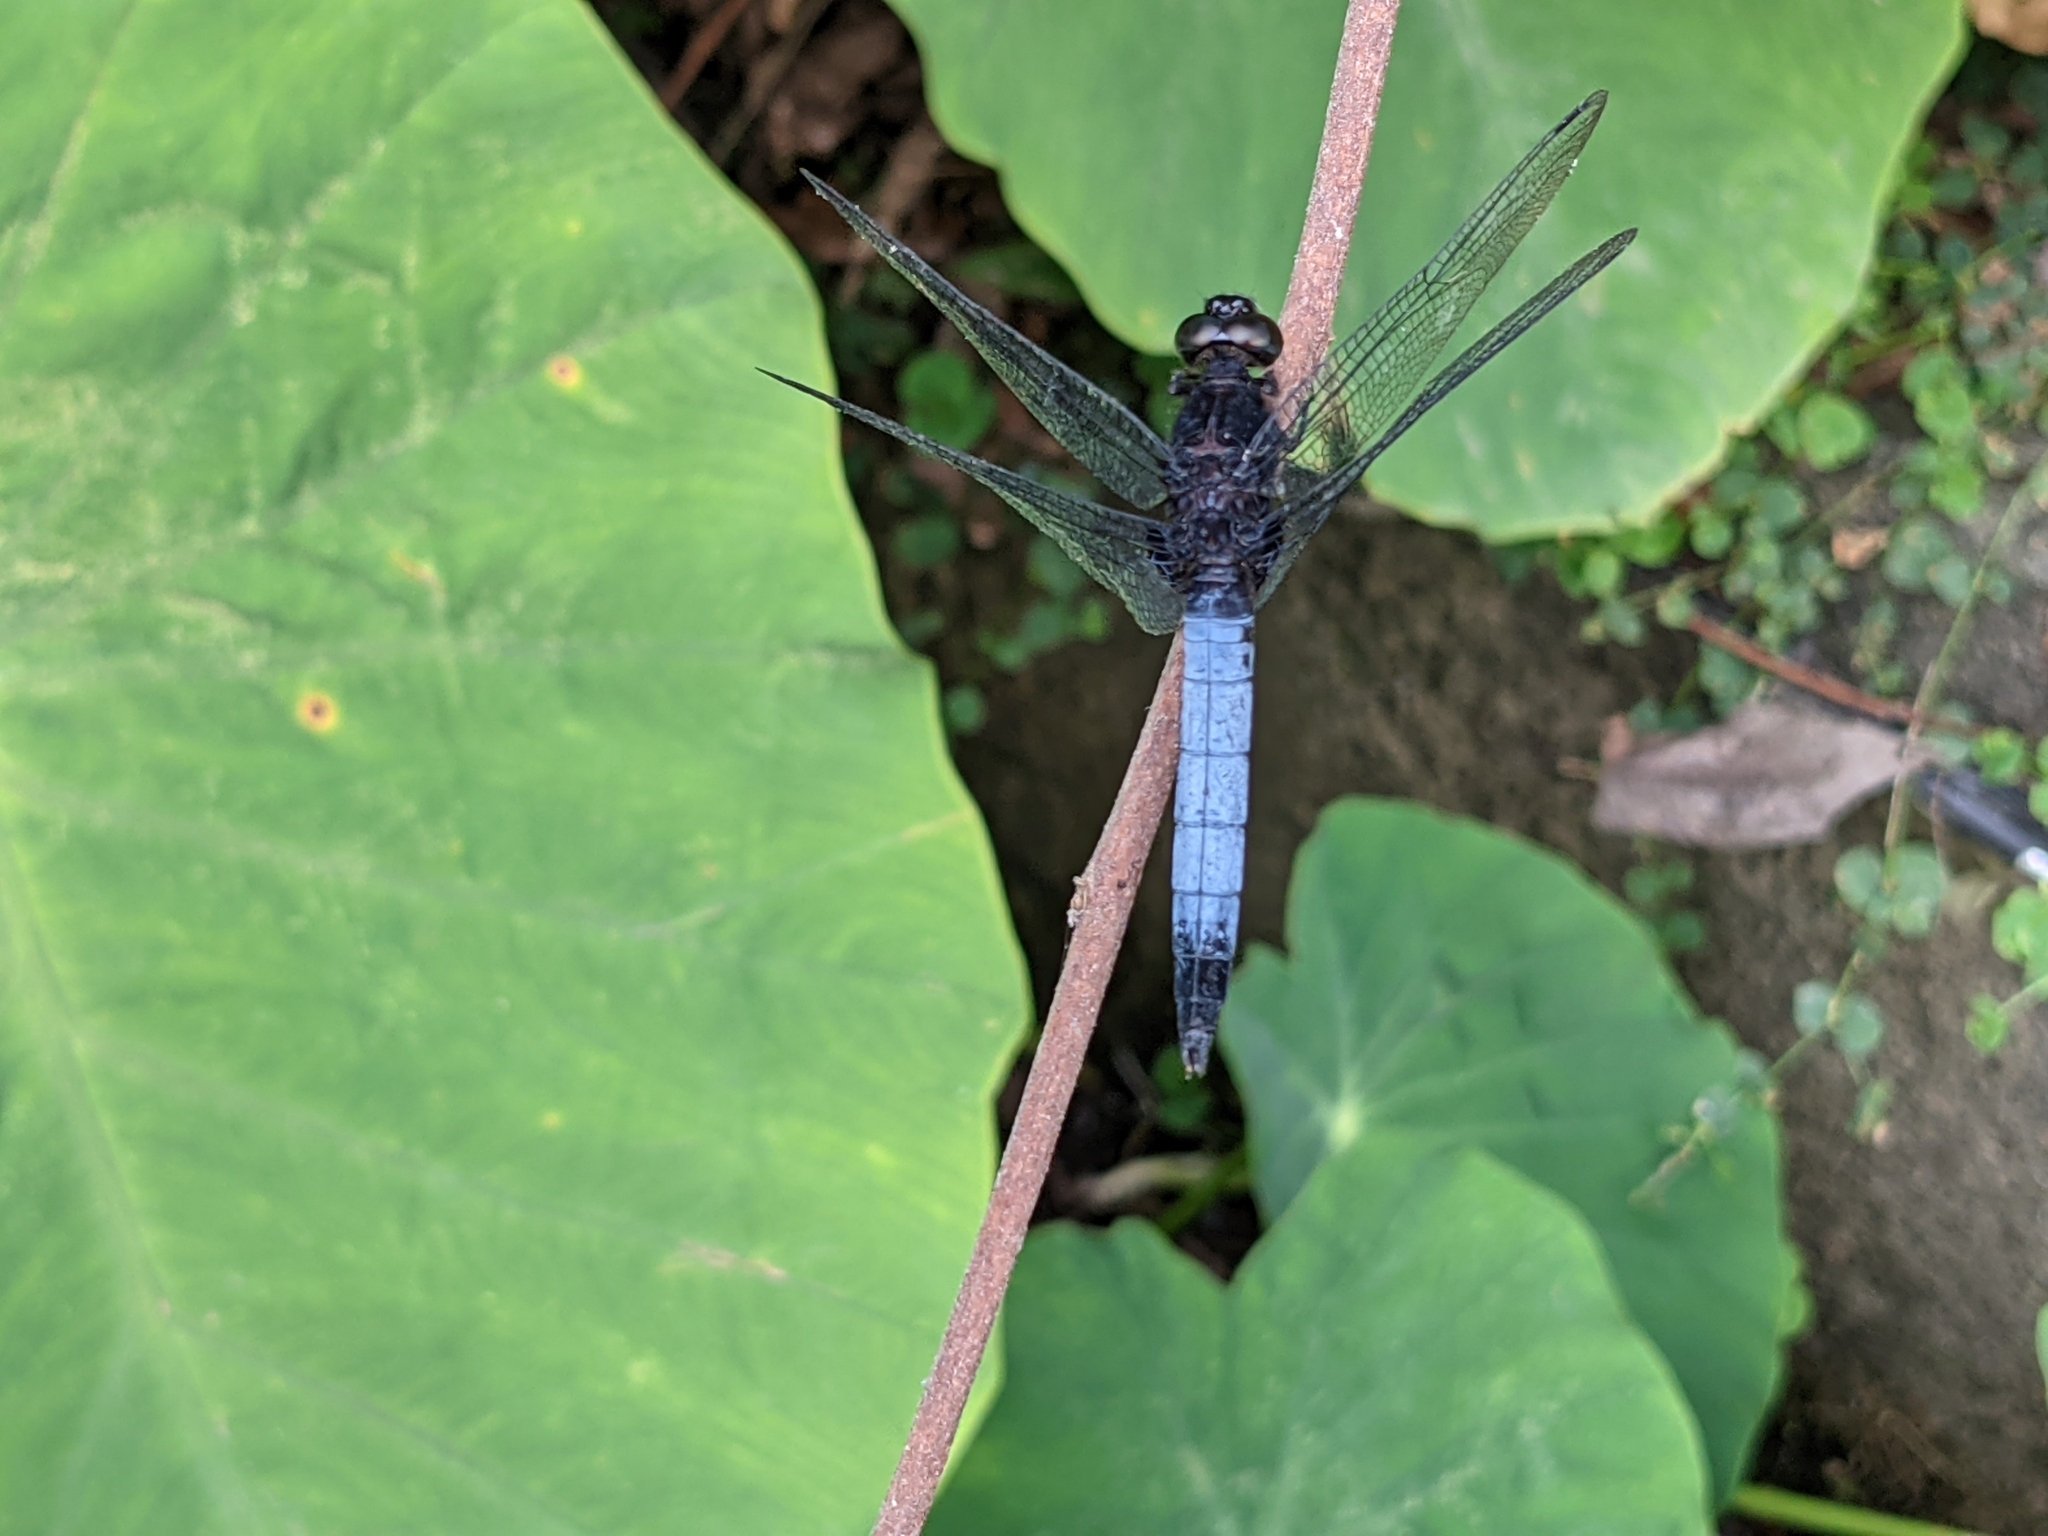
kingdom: Animalia
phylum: Arthropoda
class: Insecta
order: Odonata
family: Libellulidae
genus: Orthetrum
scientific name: Orthetrum triangulare
